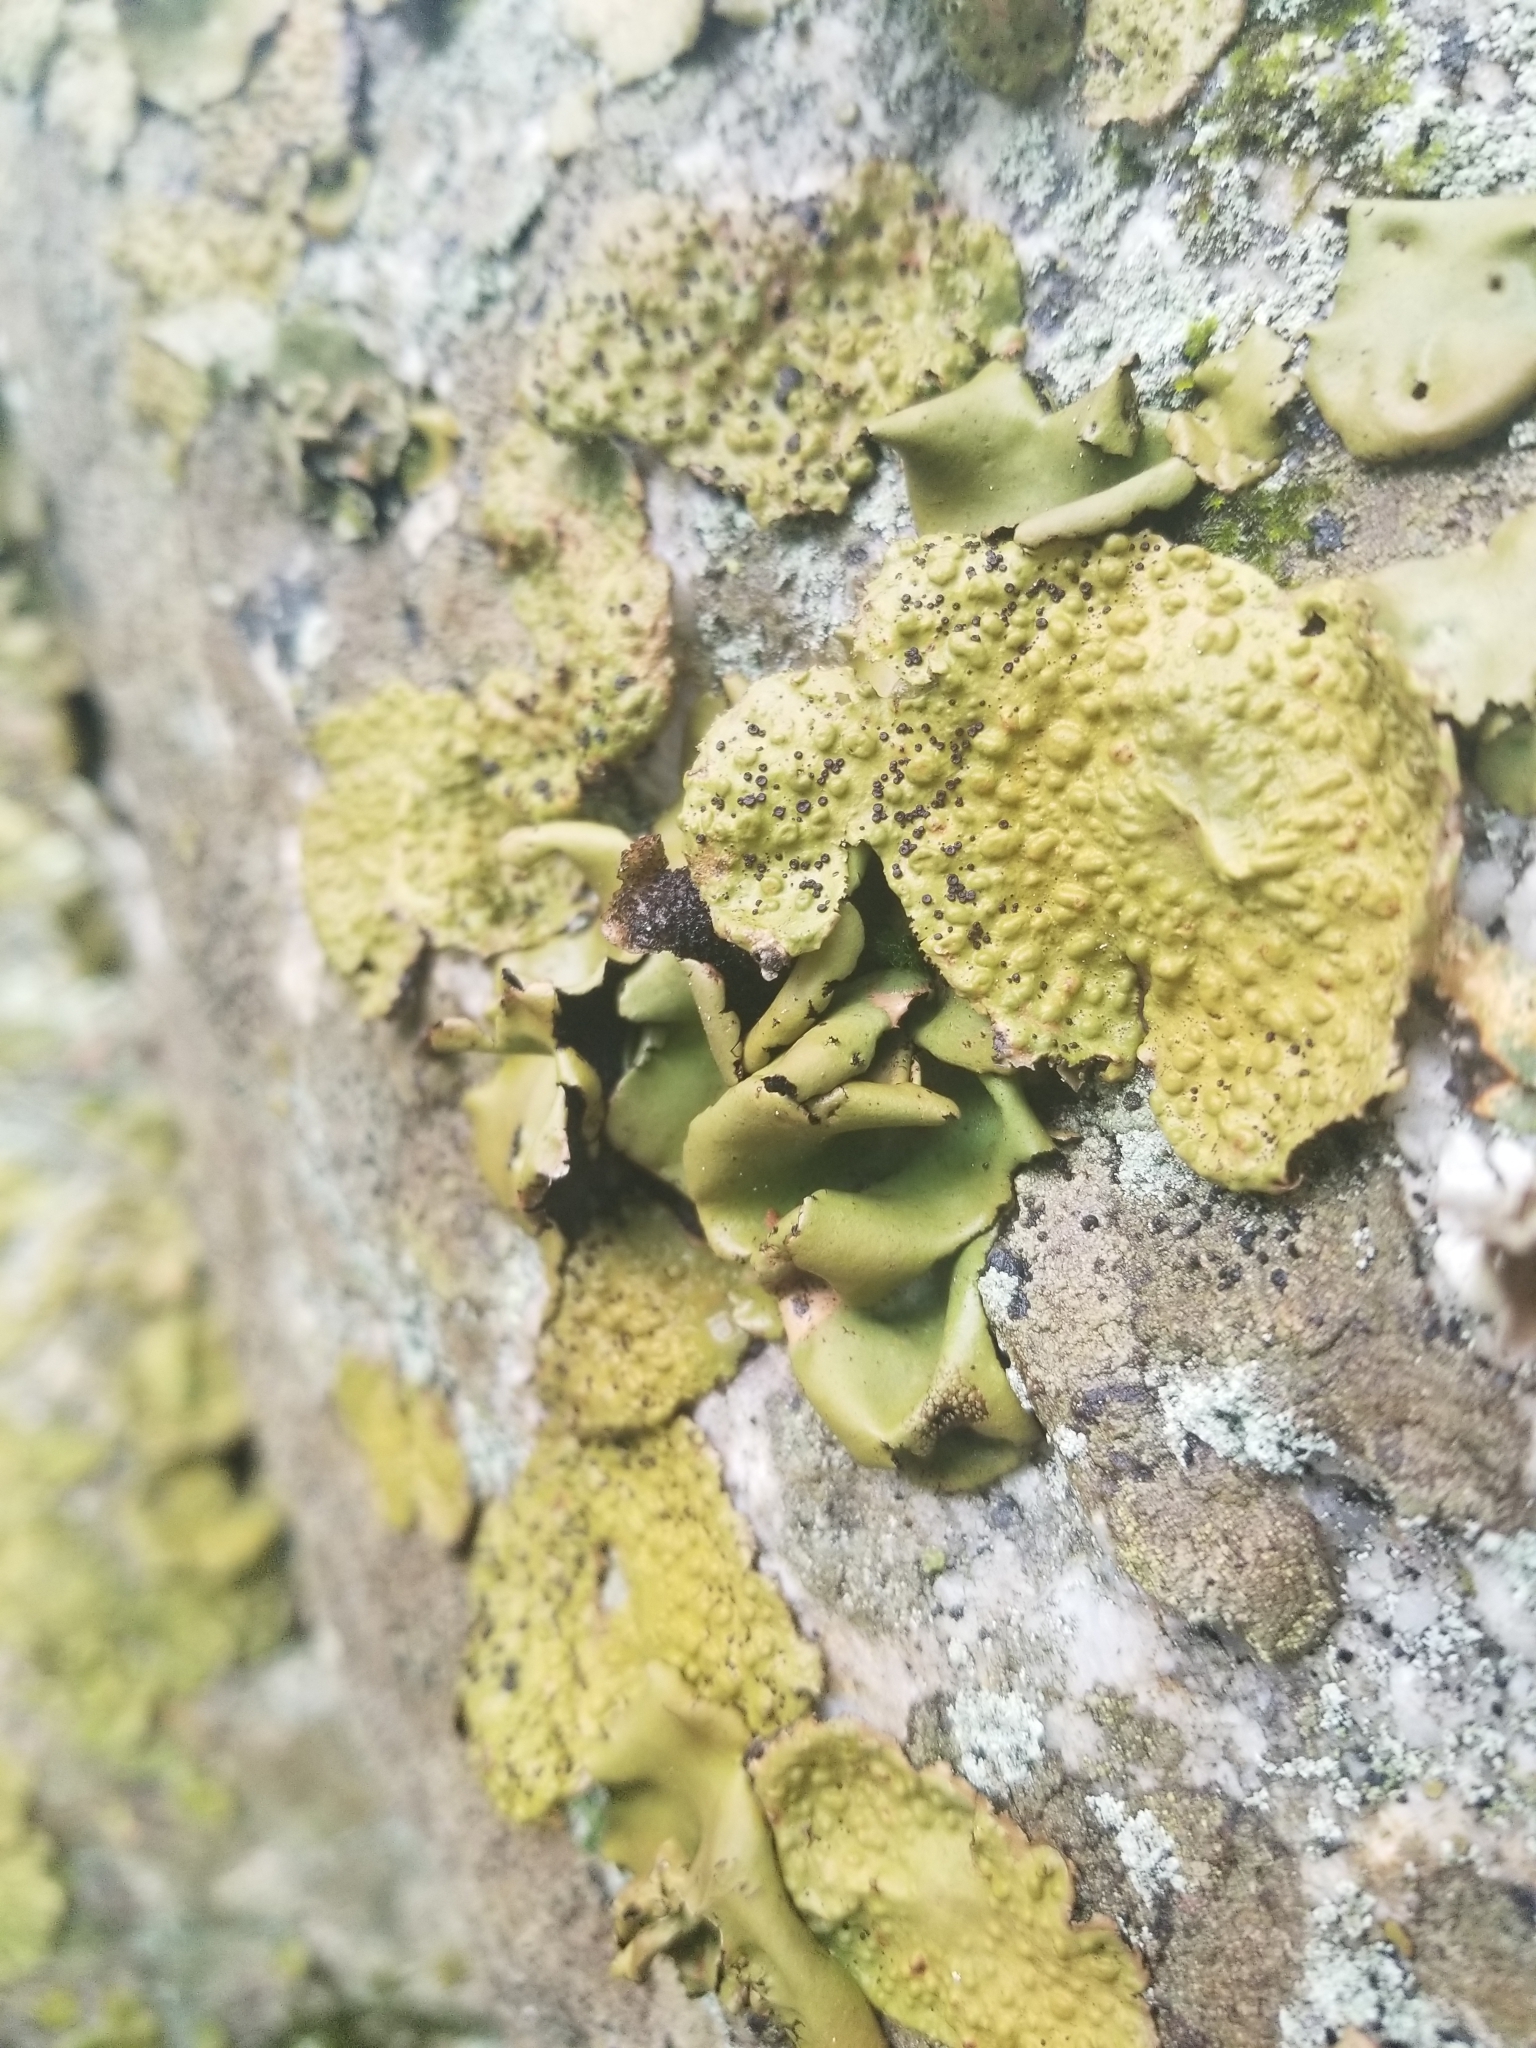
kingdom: Fungi
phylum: Ascomycota
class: Lecanoromycetes
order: Umbilicariales
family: Umbilicariaceae
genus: Umbilicaria
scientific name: Umbilicaria mammulata
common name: Smooth rock tripe
